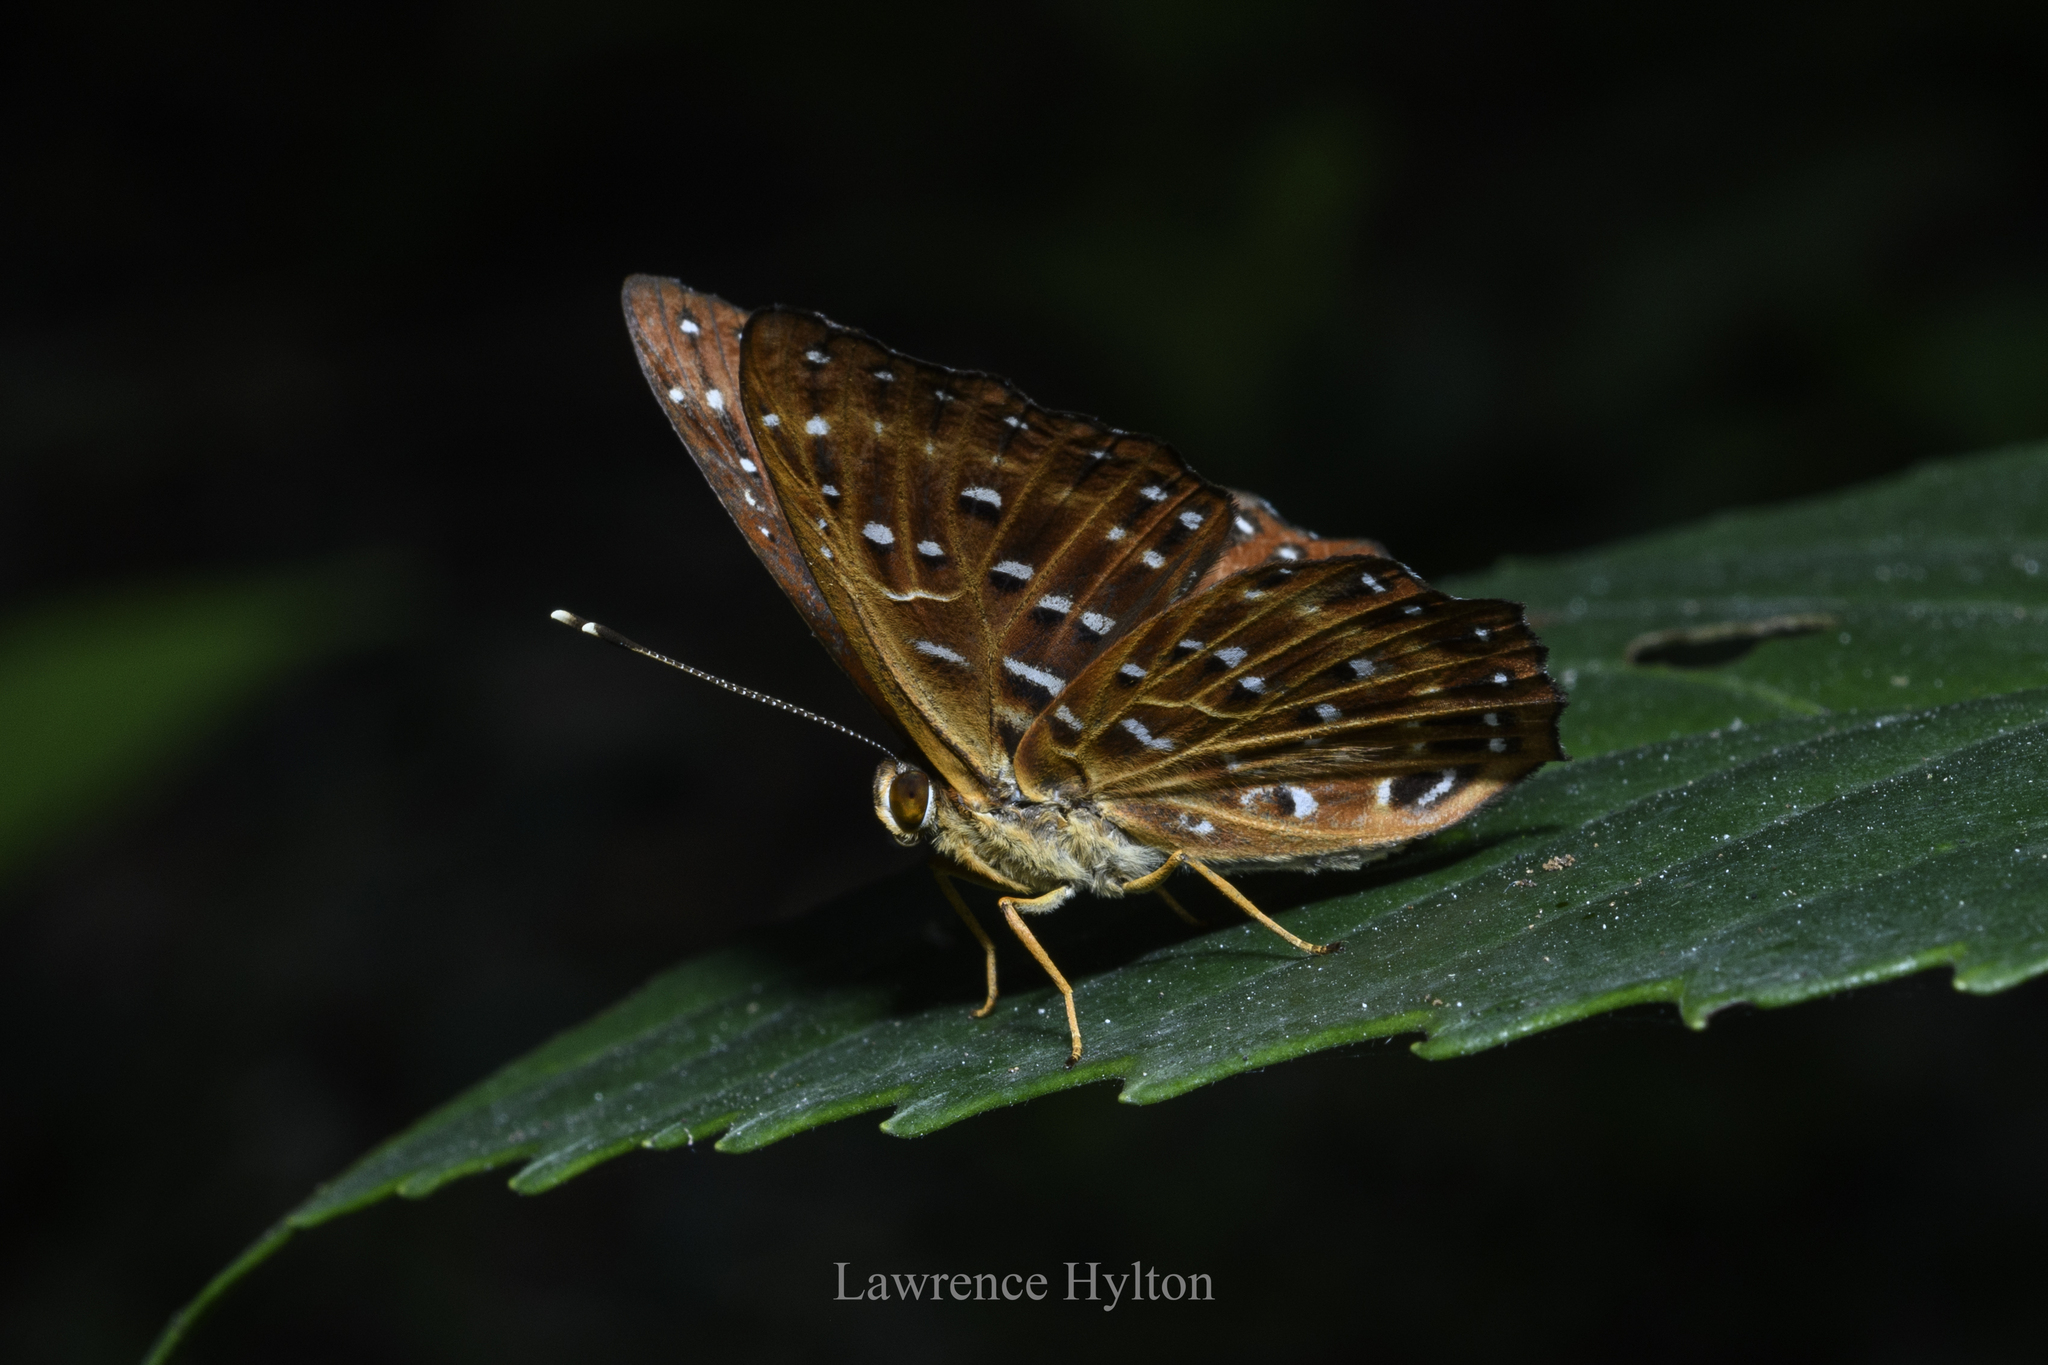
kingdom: Animalia
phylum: Arthropoda
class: Insecta
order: Lepidoptera
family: Riodinidae
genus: Zemeros
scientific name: Zemeros flegyas
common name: Punchinello
